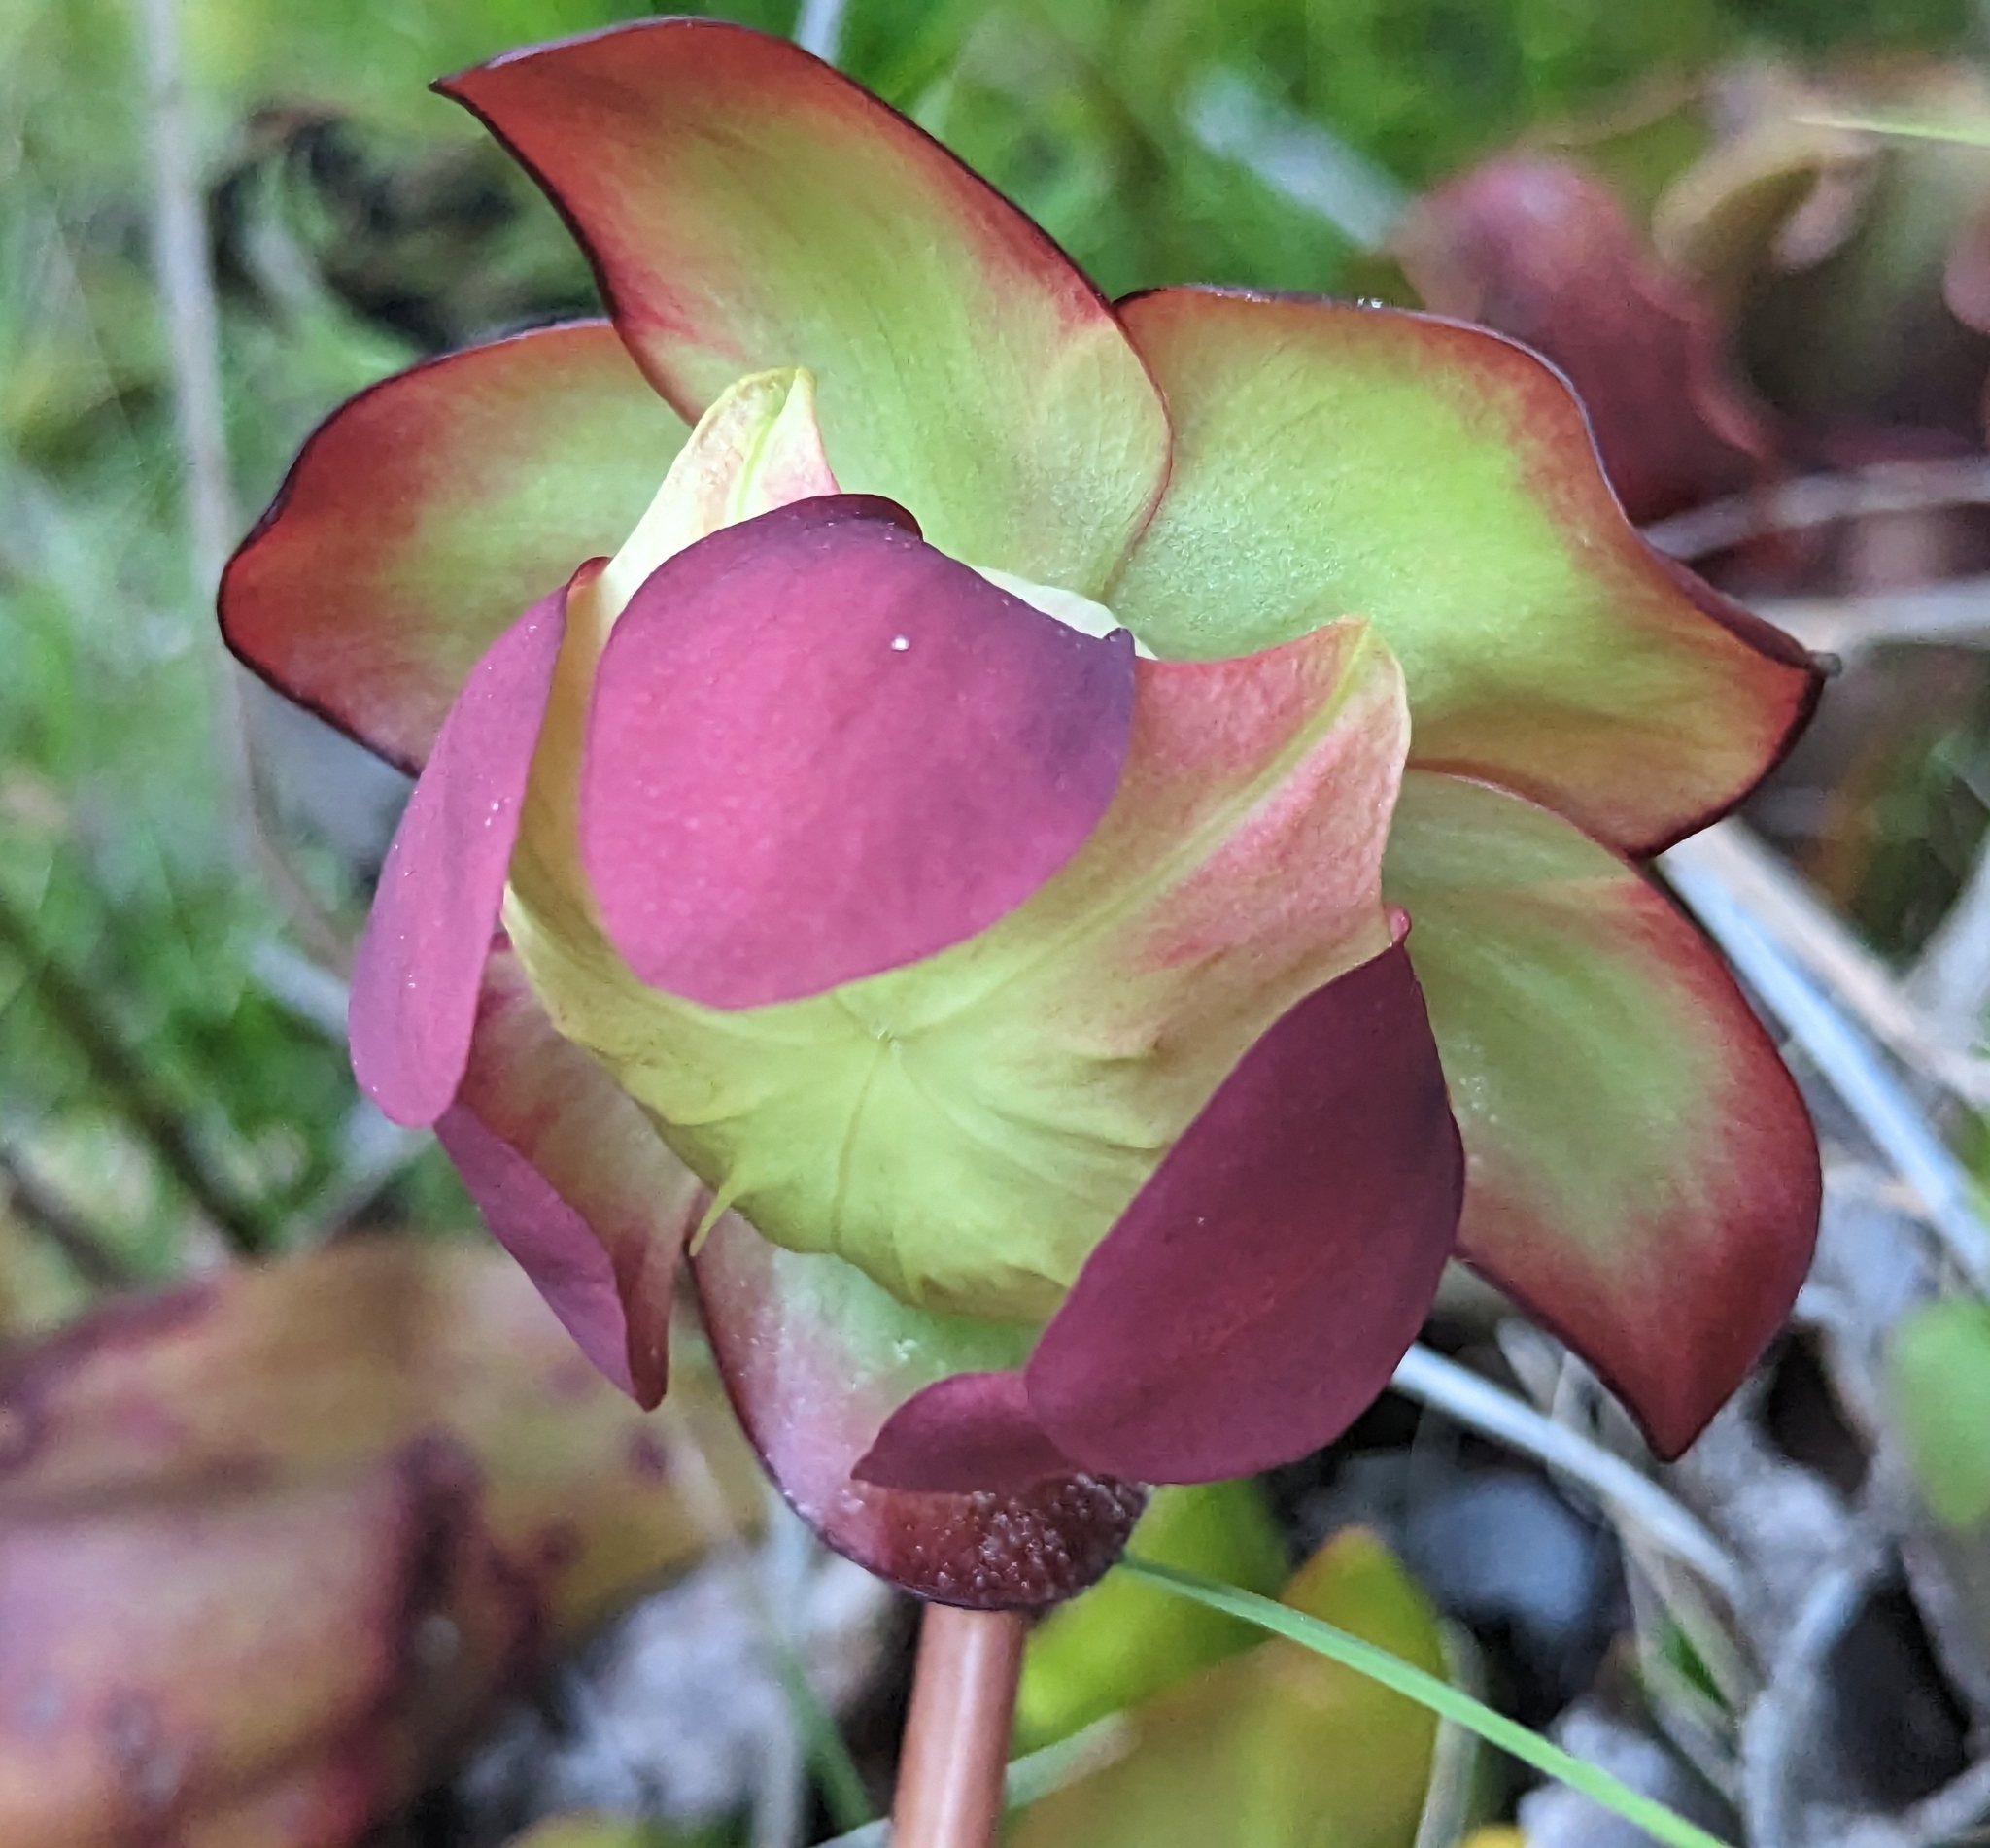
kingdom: Plantae
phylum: Tracheophyta
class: Magnoliopsida
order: Ericales
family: Sarraceniaceae
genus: Sarracenia
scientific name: Sarracenia purpurea
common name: Pitcherplant
